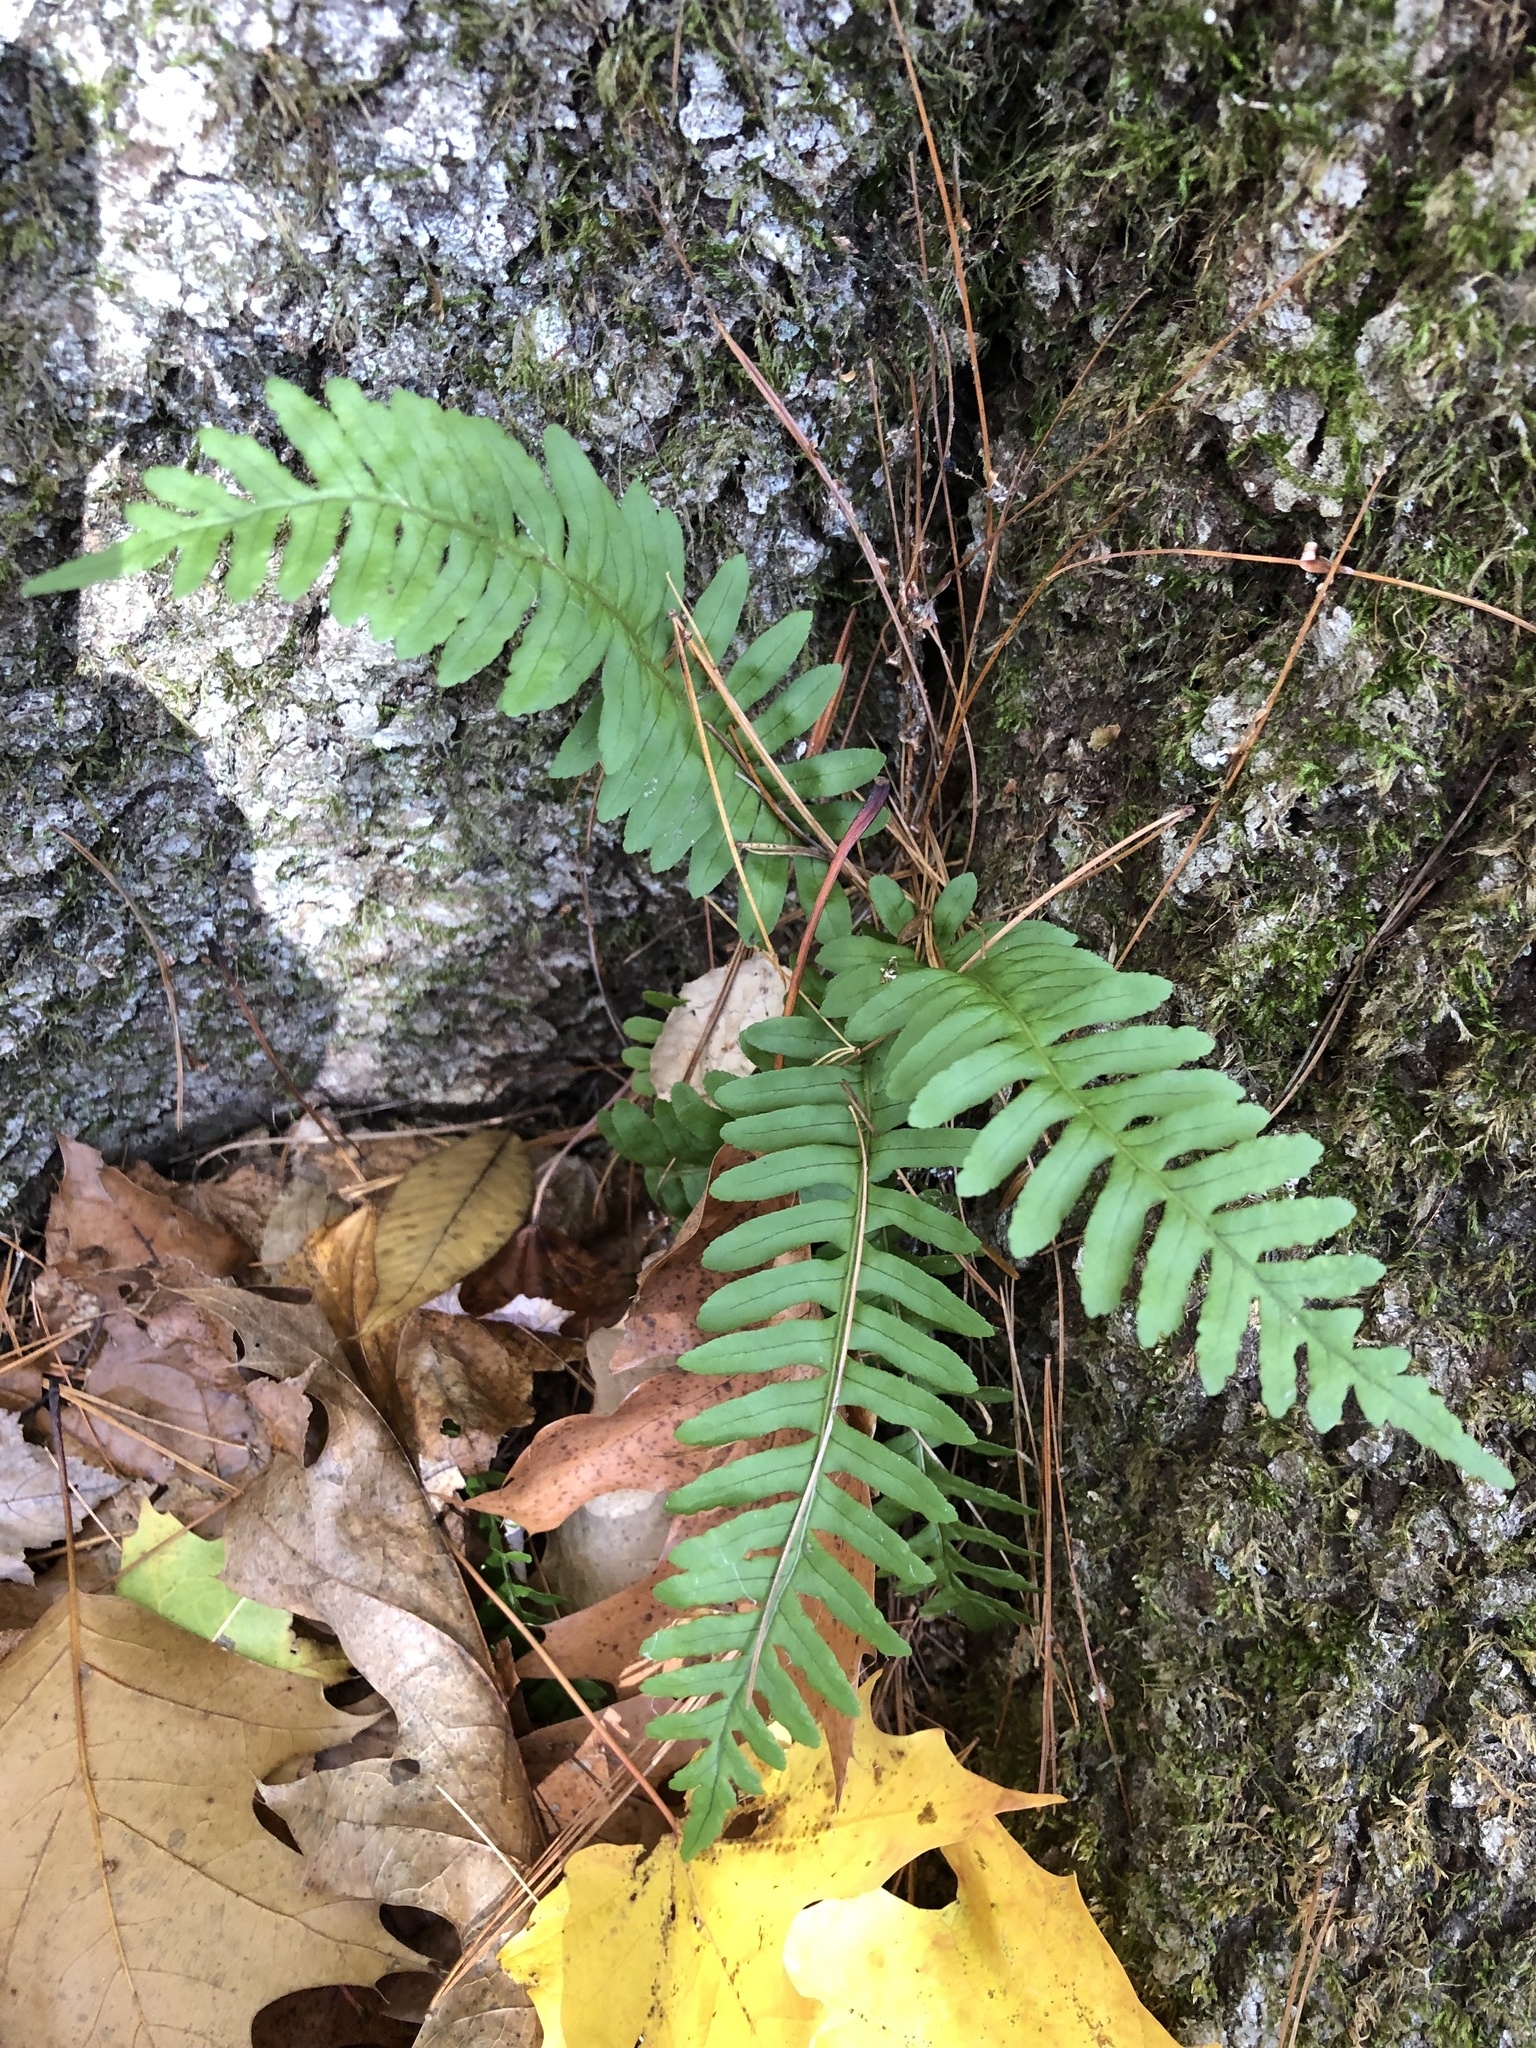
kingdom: Plantae
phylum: Tracheophyta
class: Polypodiopsida
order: Polypodiales
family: Polypodiaceae
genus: Polypodium
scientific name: Polypodium virginianum
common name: American wall fern
